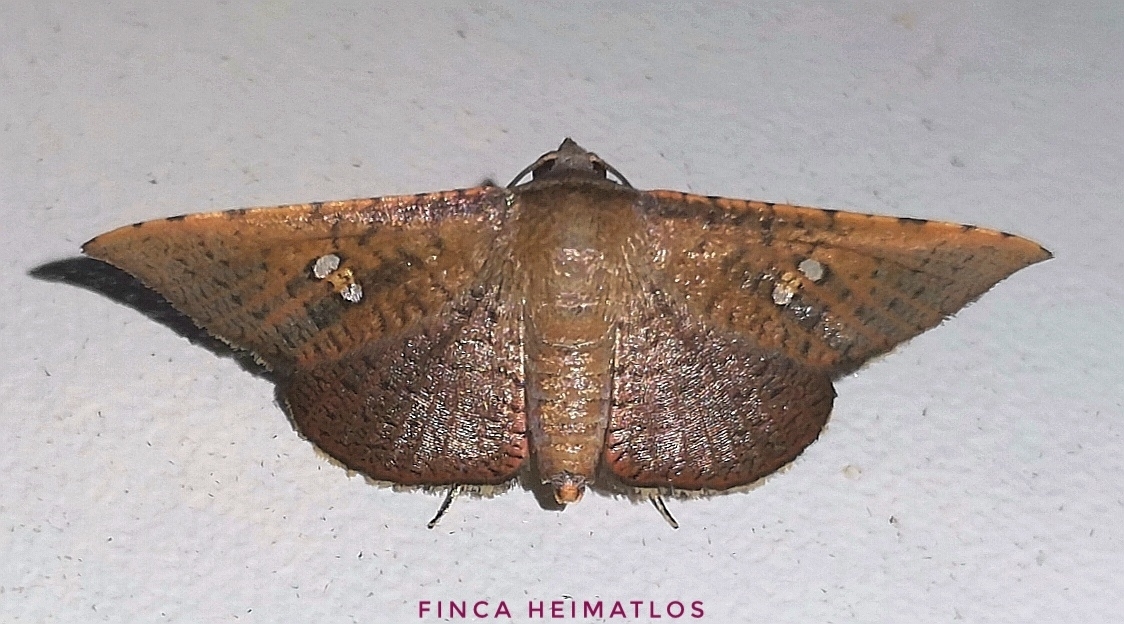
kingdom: Animalia
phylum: Arthropoda
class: Insecta
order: Lepidoptera
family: Thyrididae
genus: Banisia
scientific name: Banisia argutula
